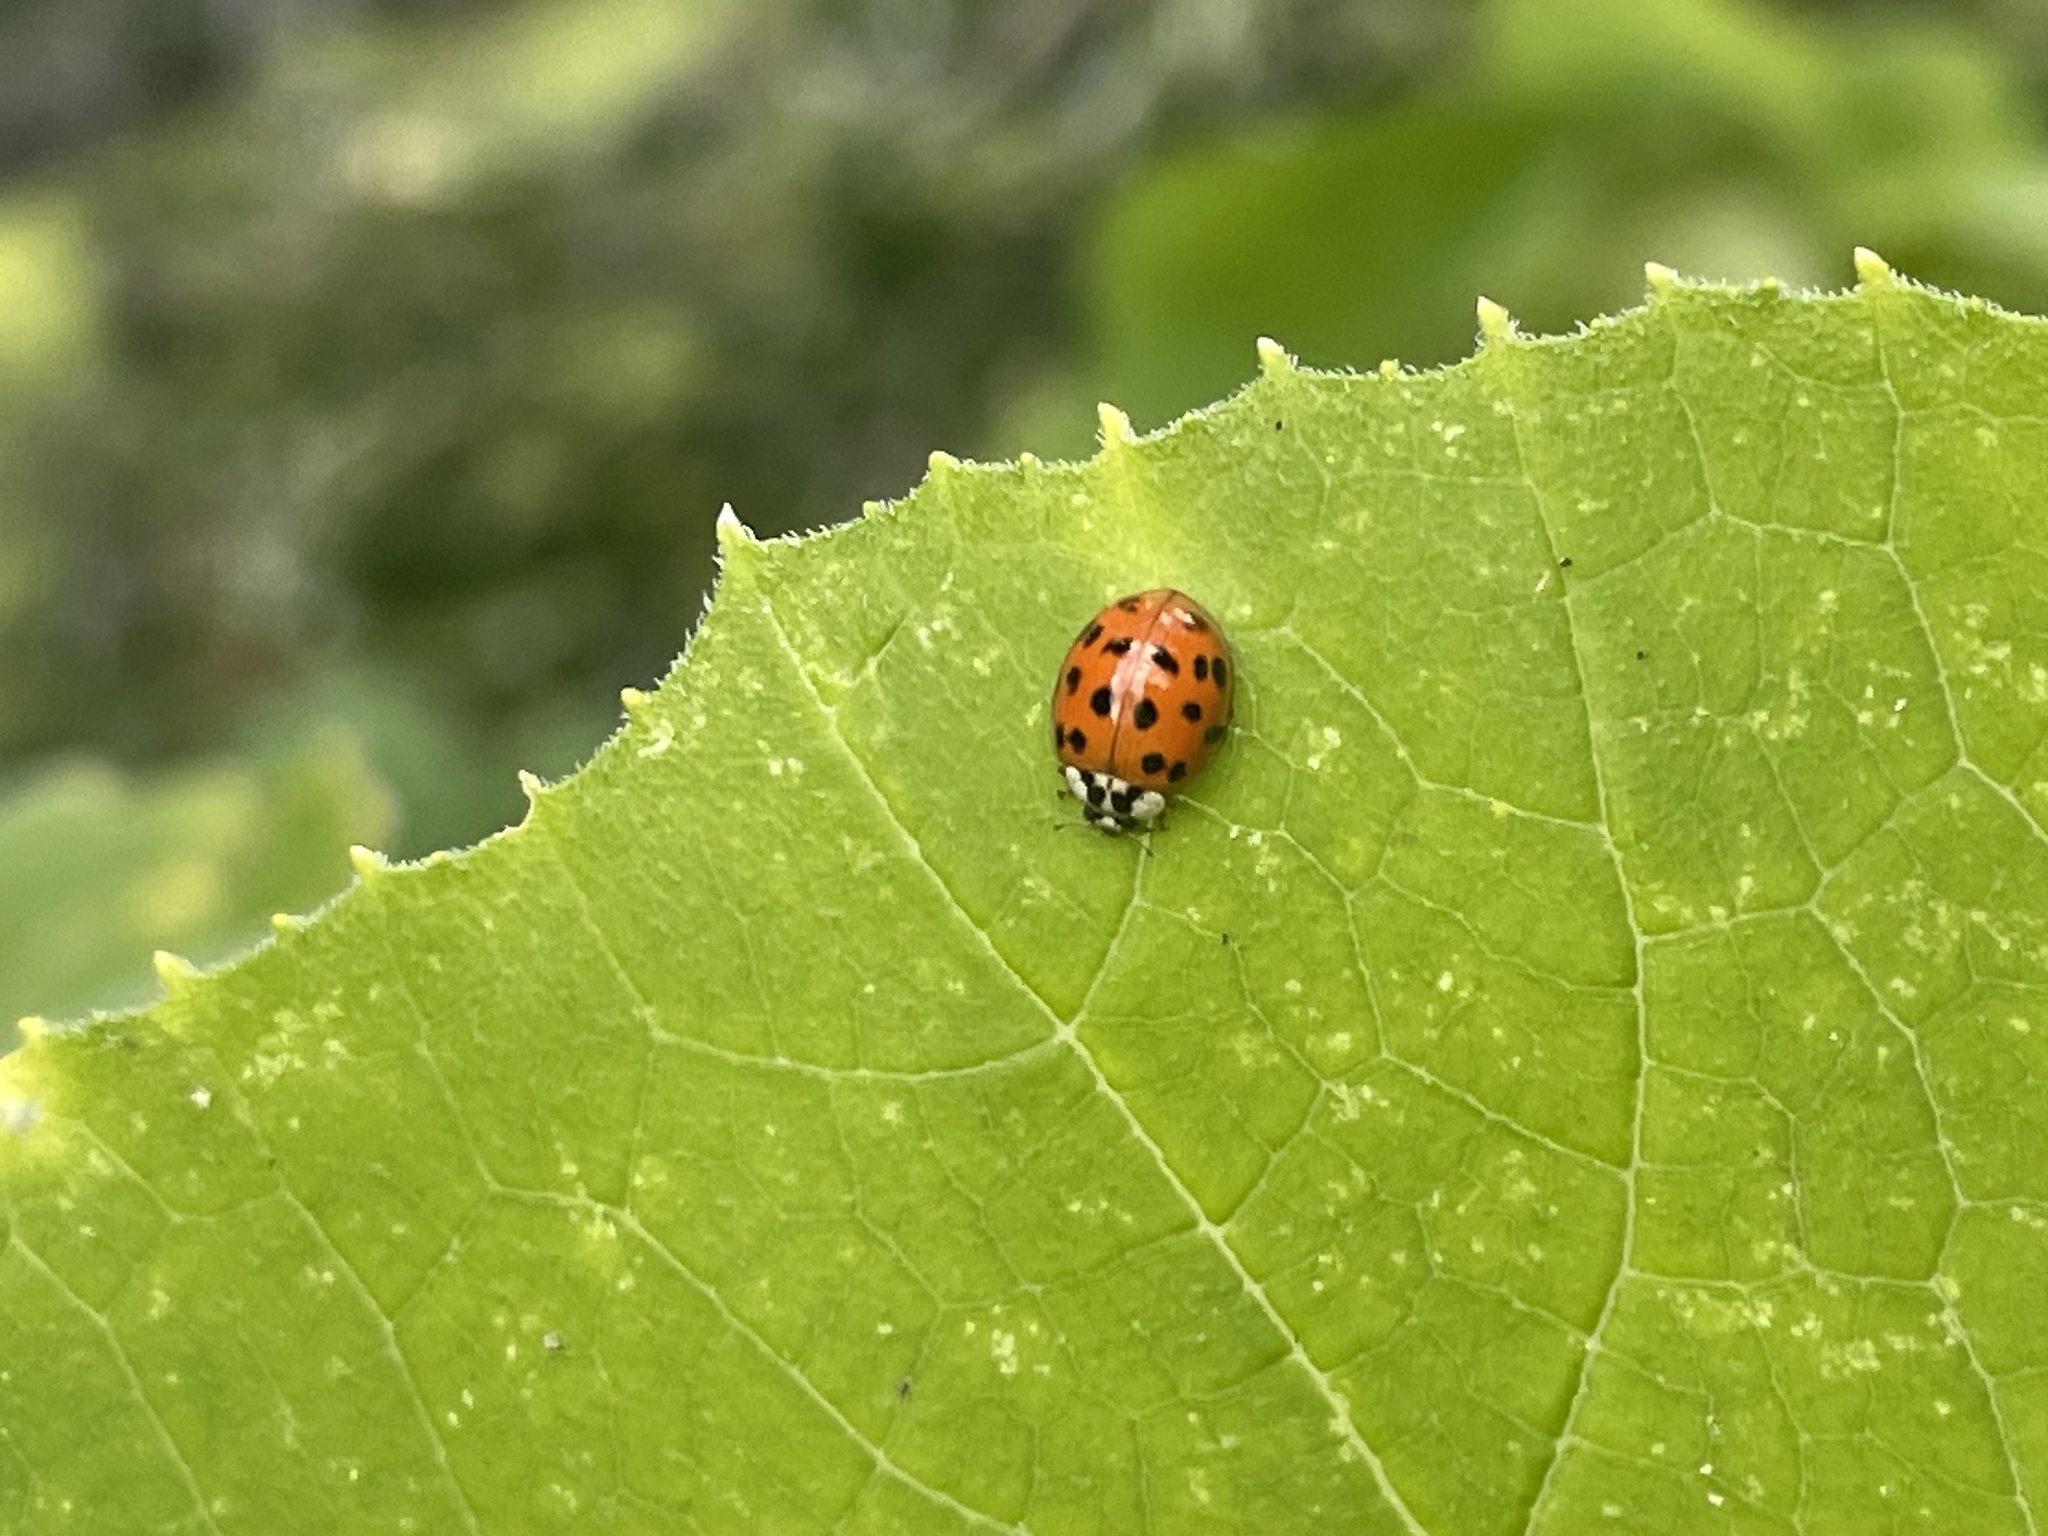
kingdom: Animalia
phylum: Arthropoda
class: Insecta
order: Coleoptera
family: Coccinellidae
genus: Harmonia
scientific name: Harmonia axyridis
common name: Harlequin ladybird
